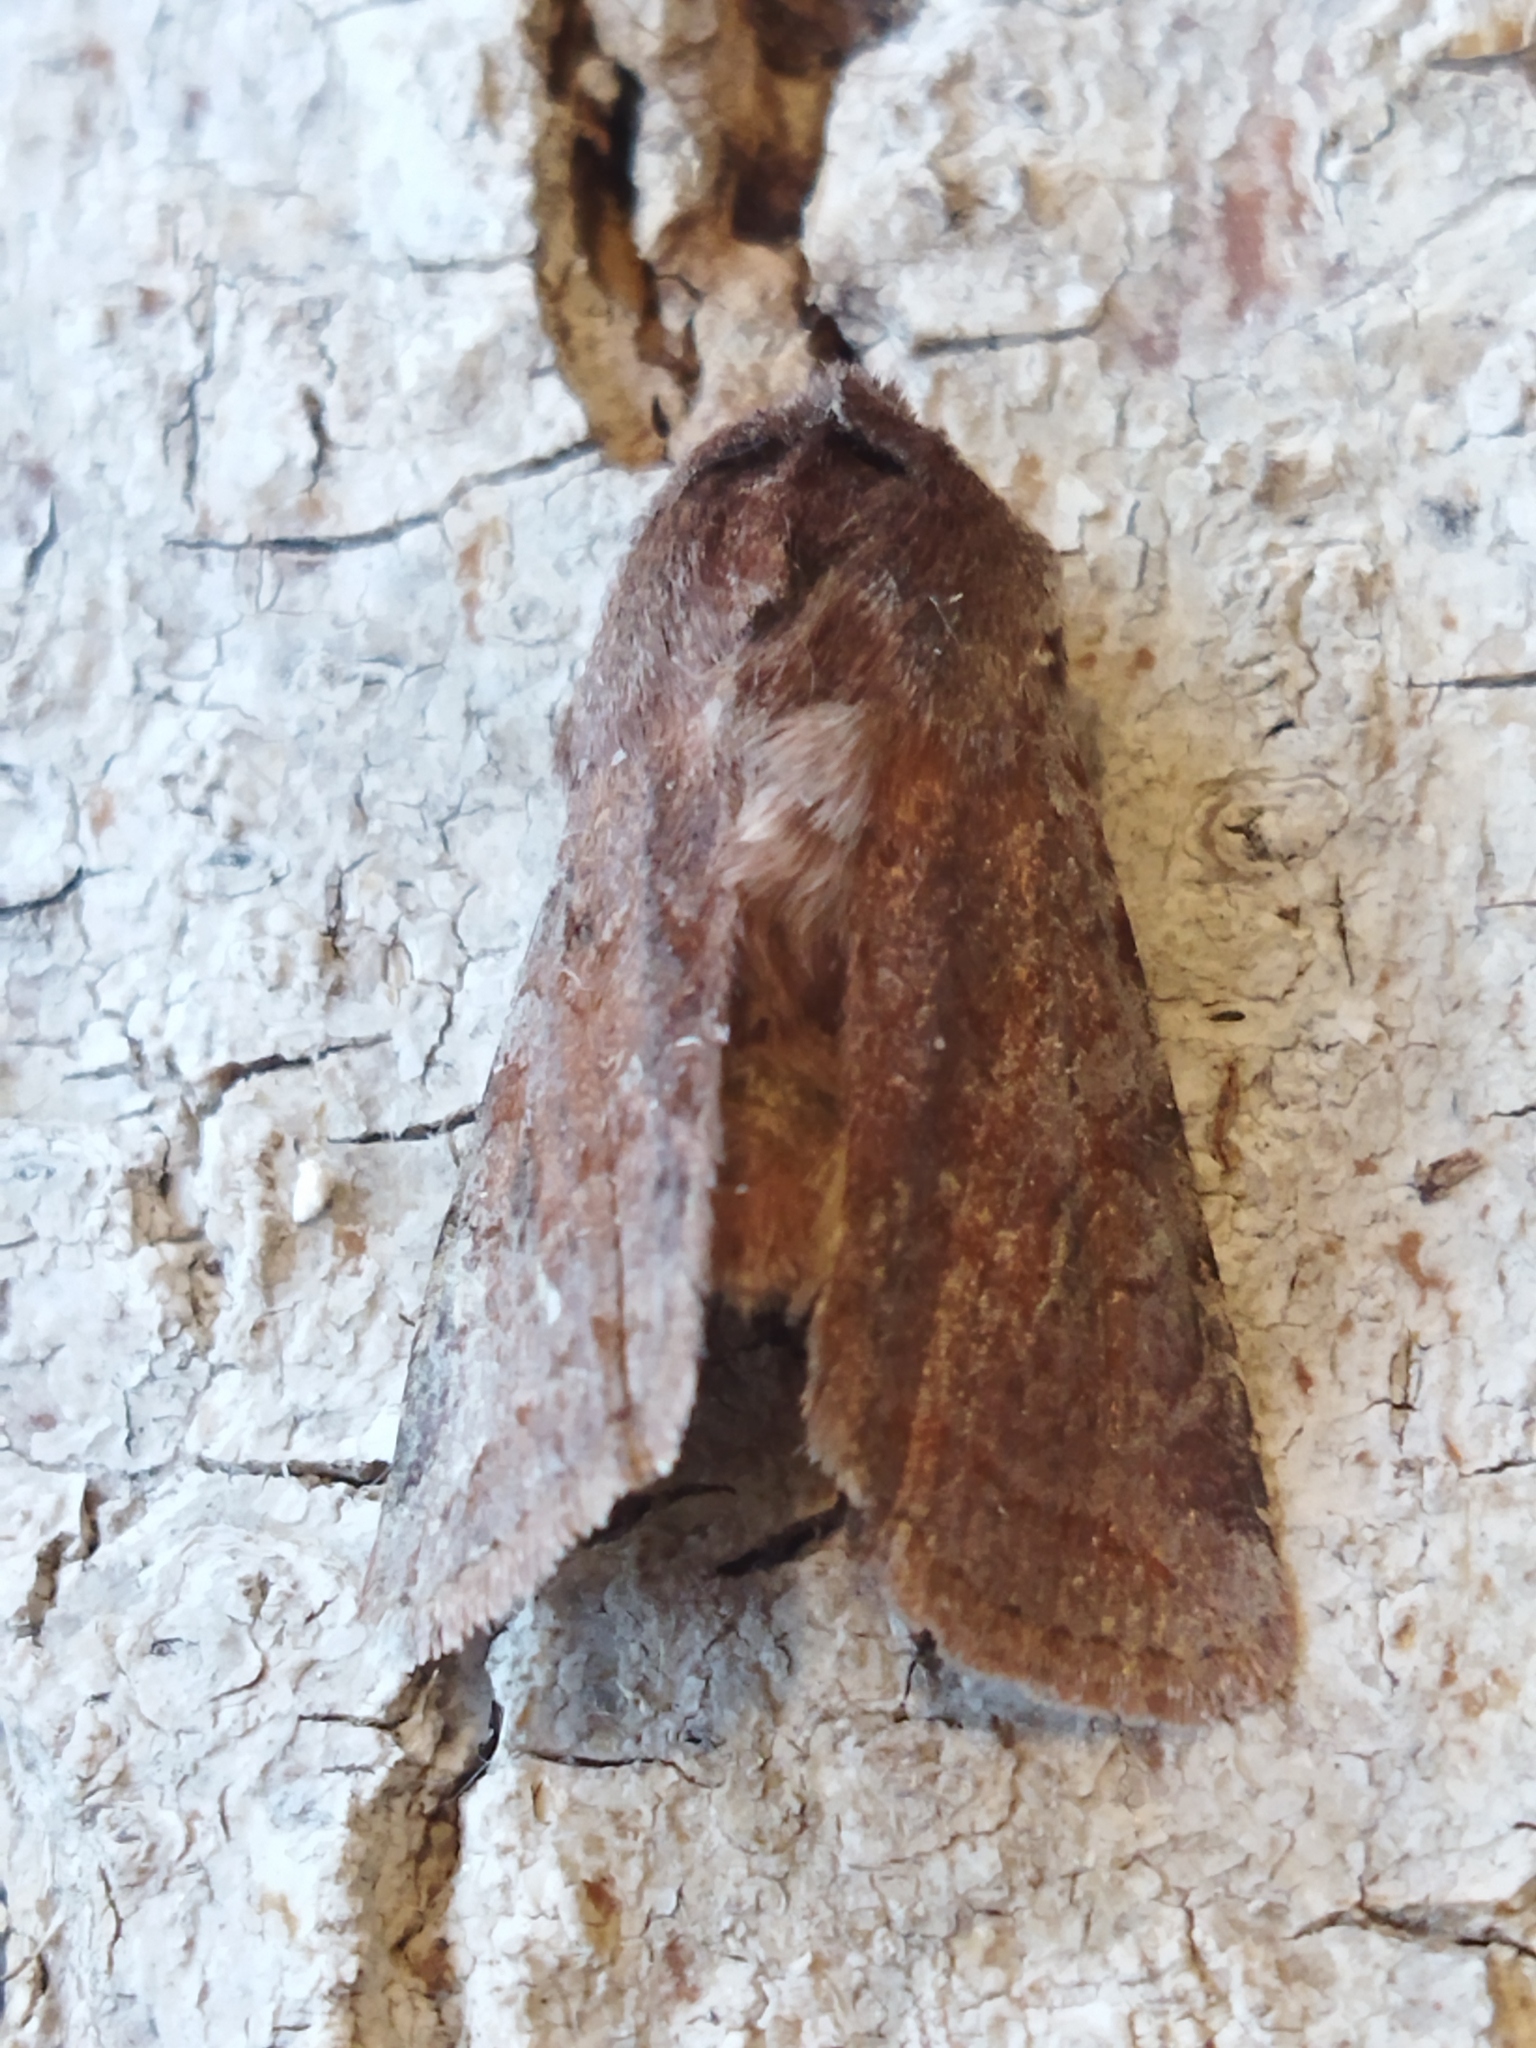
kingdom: Animalia
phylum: Arthropoda
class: Insecta
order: Lepidoptera
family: Noctuidae
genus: Cerastis
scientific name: Cerastis rubricosa
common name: Red chestnut
